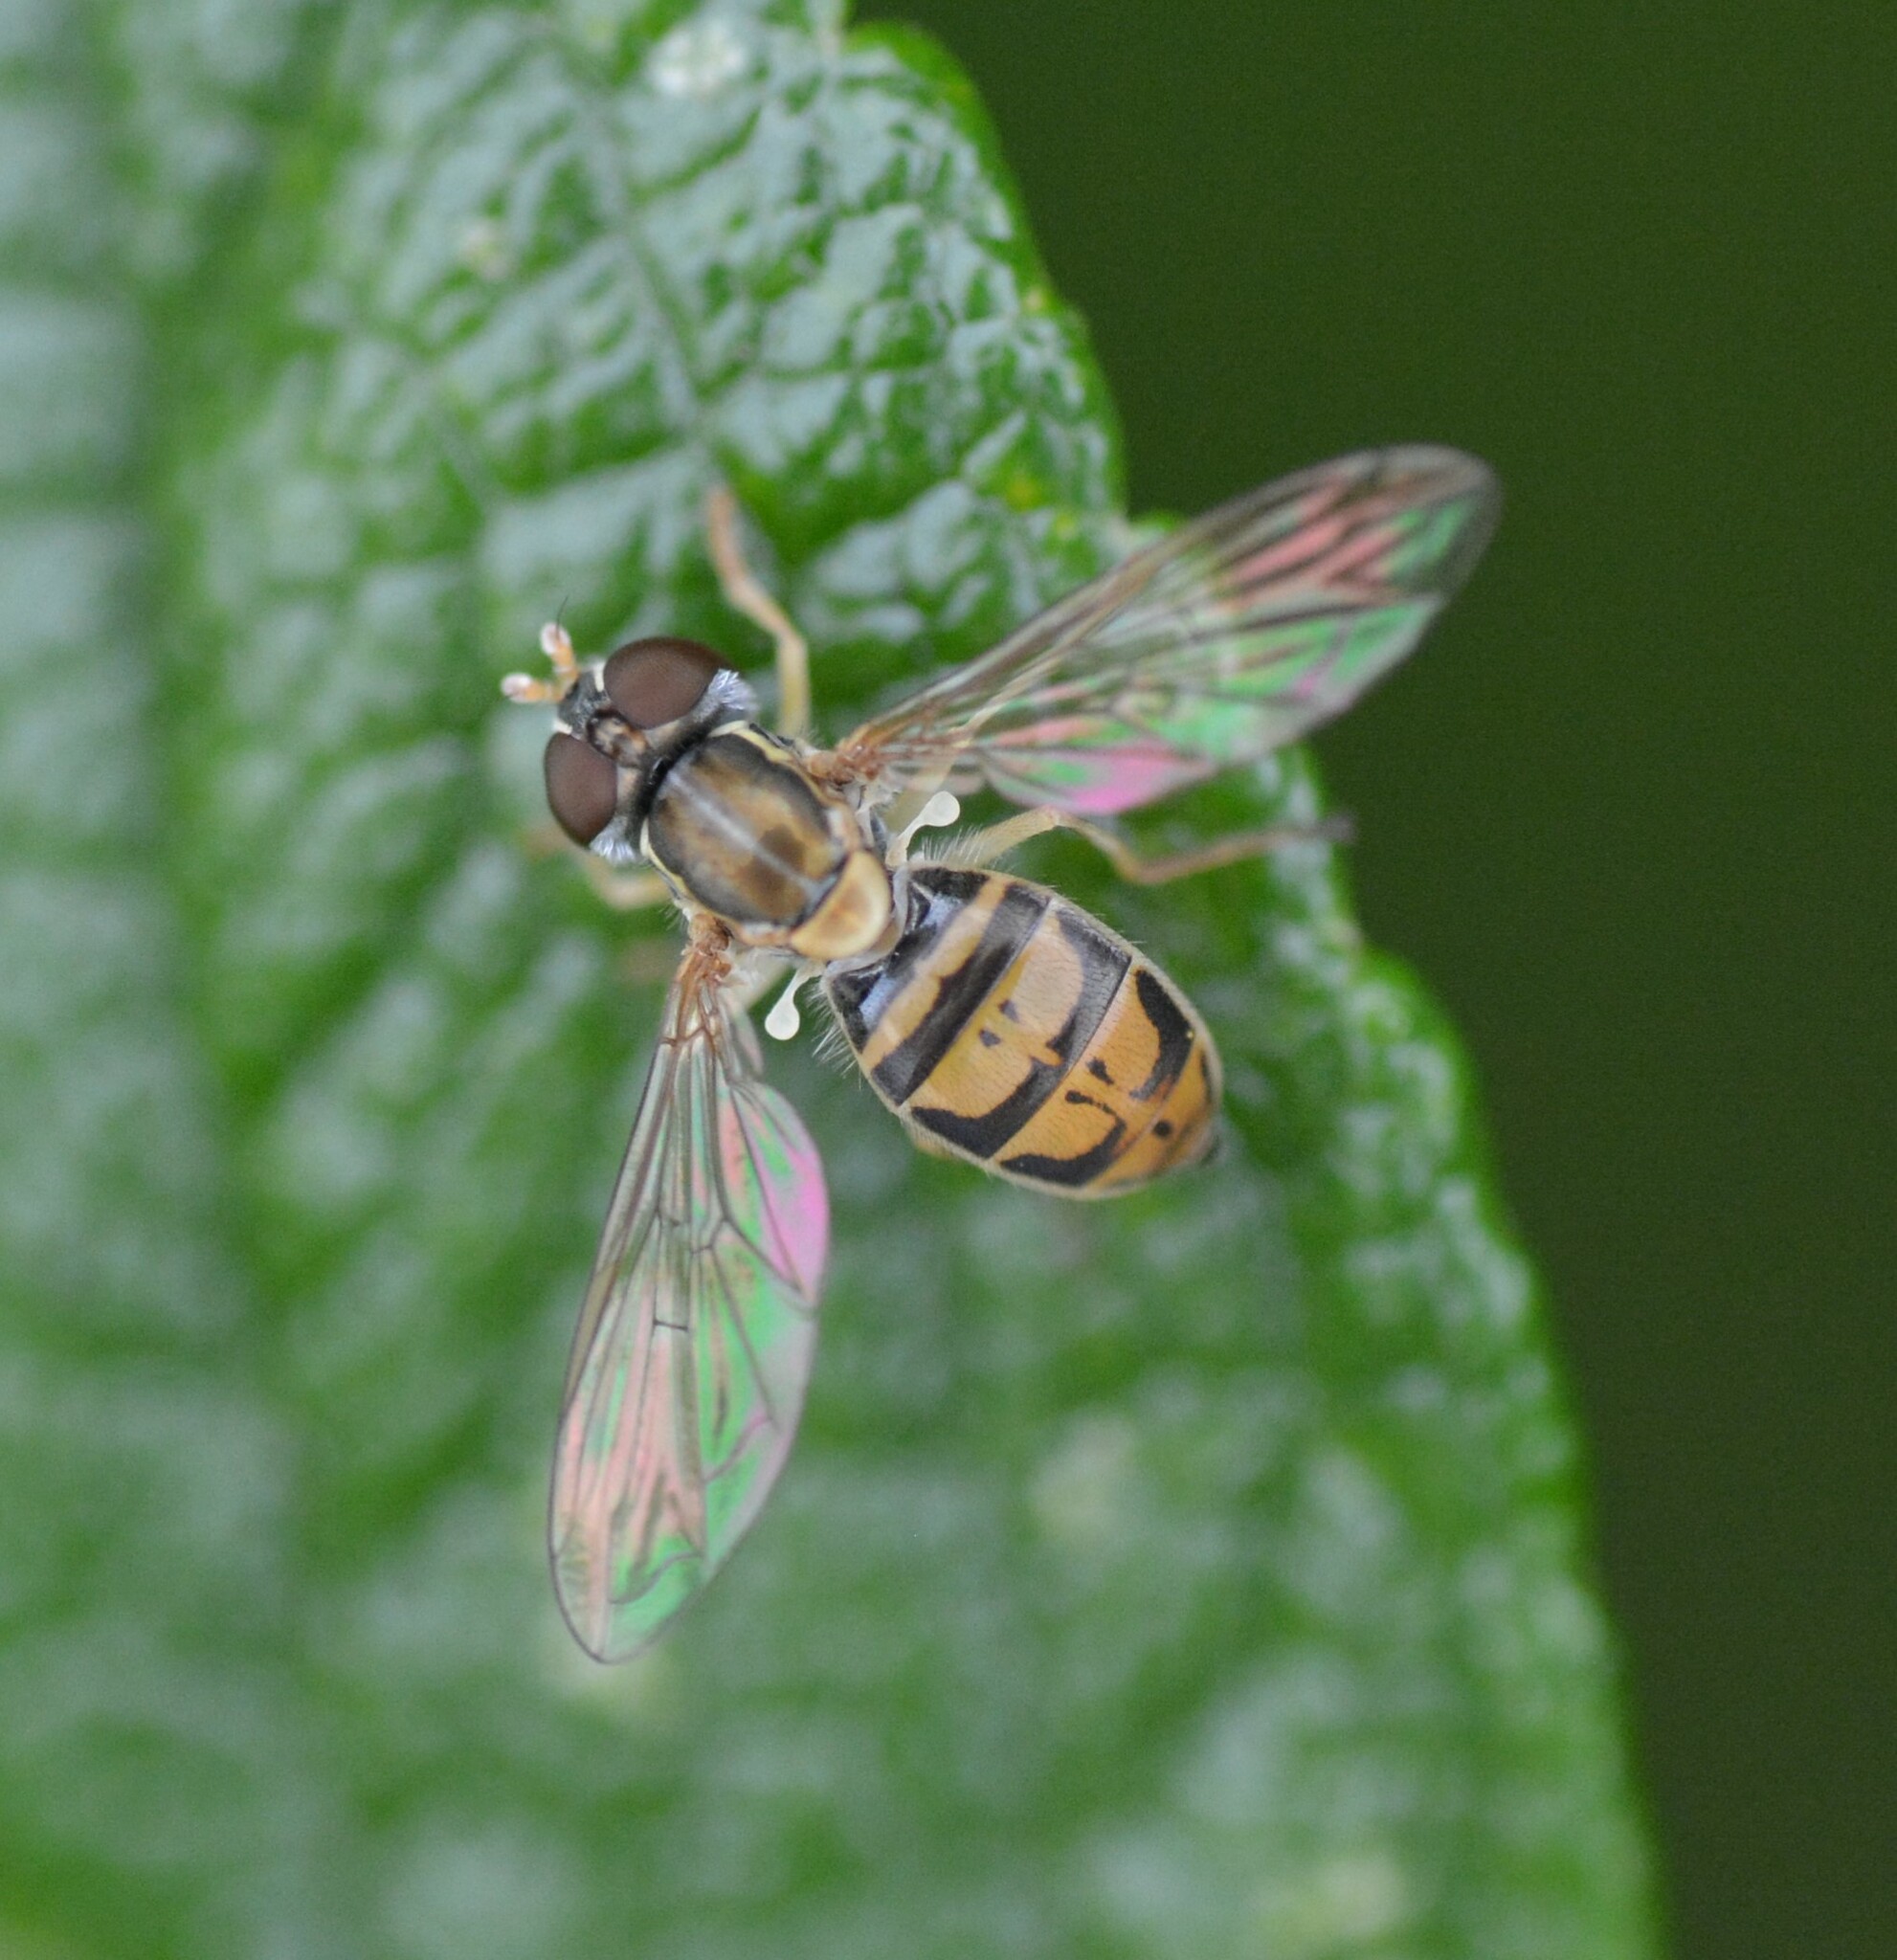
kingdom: Animalia
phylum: Arthropoda
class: Insecta
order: Diptera
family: Syrphidae
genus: Toxomerus
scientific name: Toxomerus marginatus
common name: Syrphid fly
